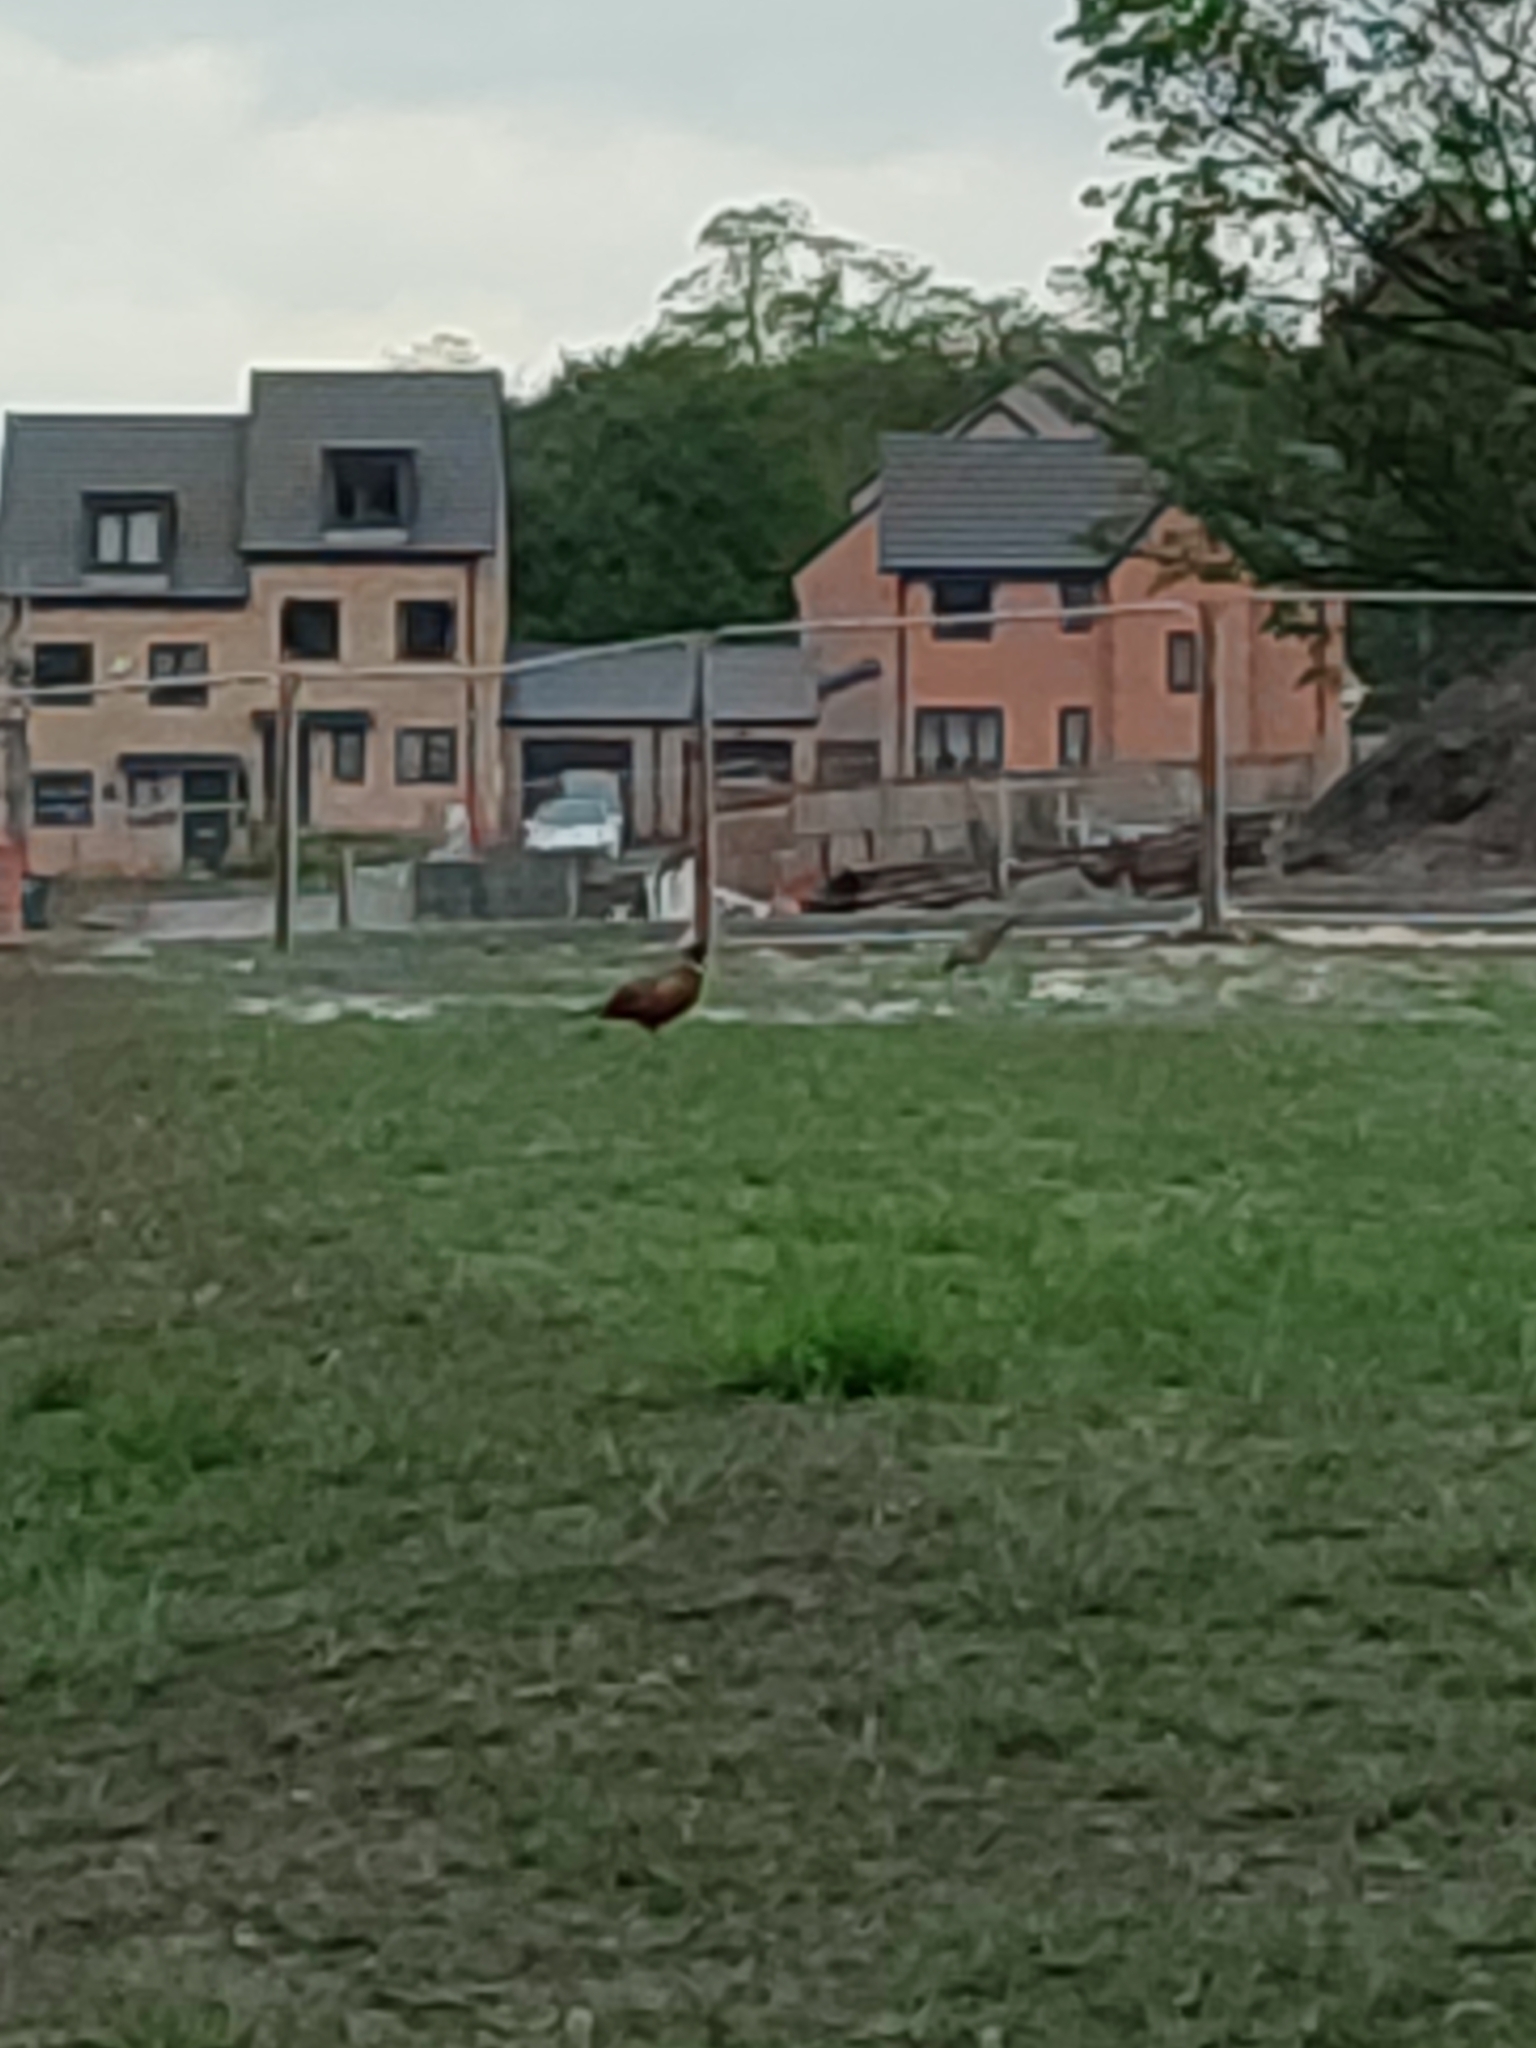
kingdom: Animalia
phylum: Chordata
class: Aves
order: Galliformes
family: Phasianidae
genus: Phasianus
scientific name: Phasianus colchicus
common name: Common pheasant
